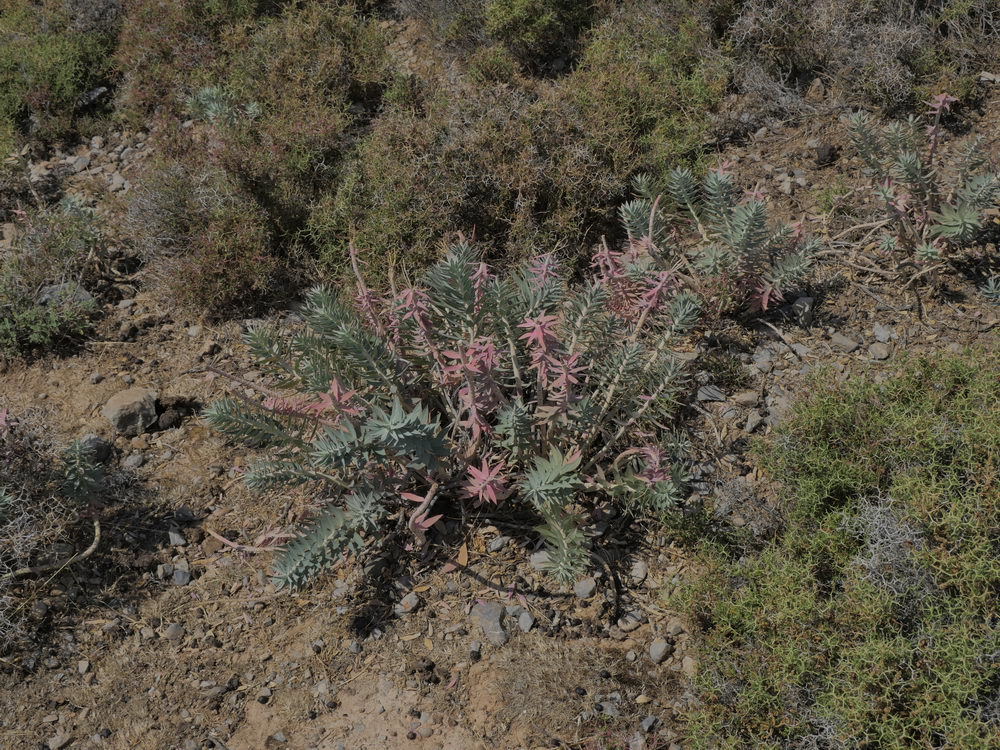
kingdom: Plantae
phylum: Tracheophyta
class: Magnoliopsida
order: Malpighiales
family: Euphorbiaceae
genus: Euphorbia
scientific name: Euphorbia rigida
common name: Upright myrtle spurge
